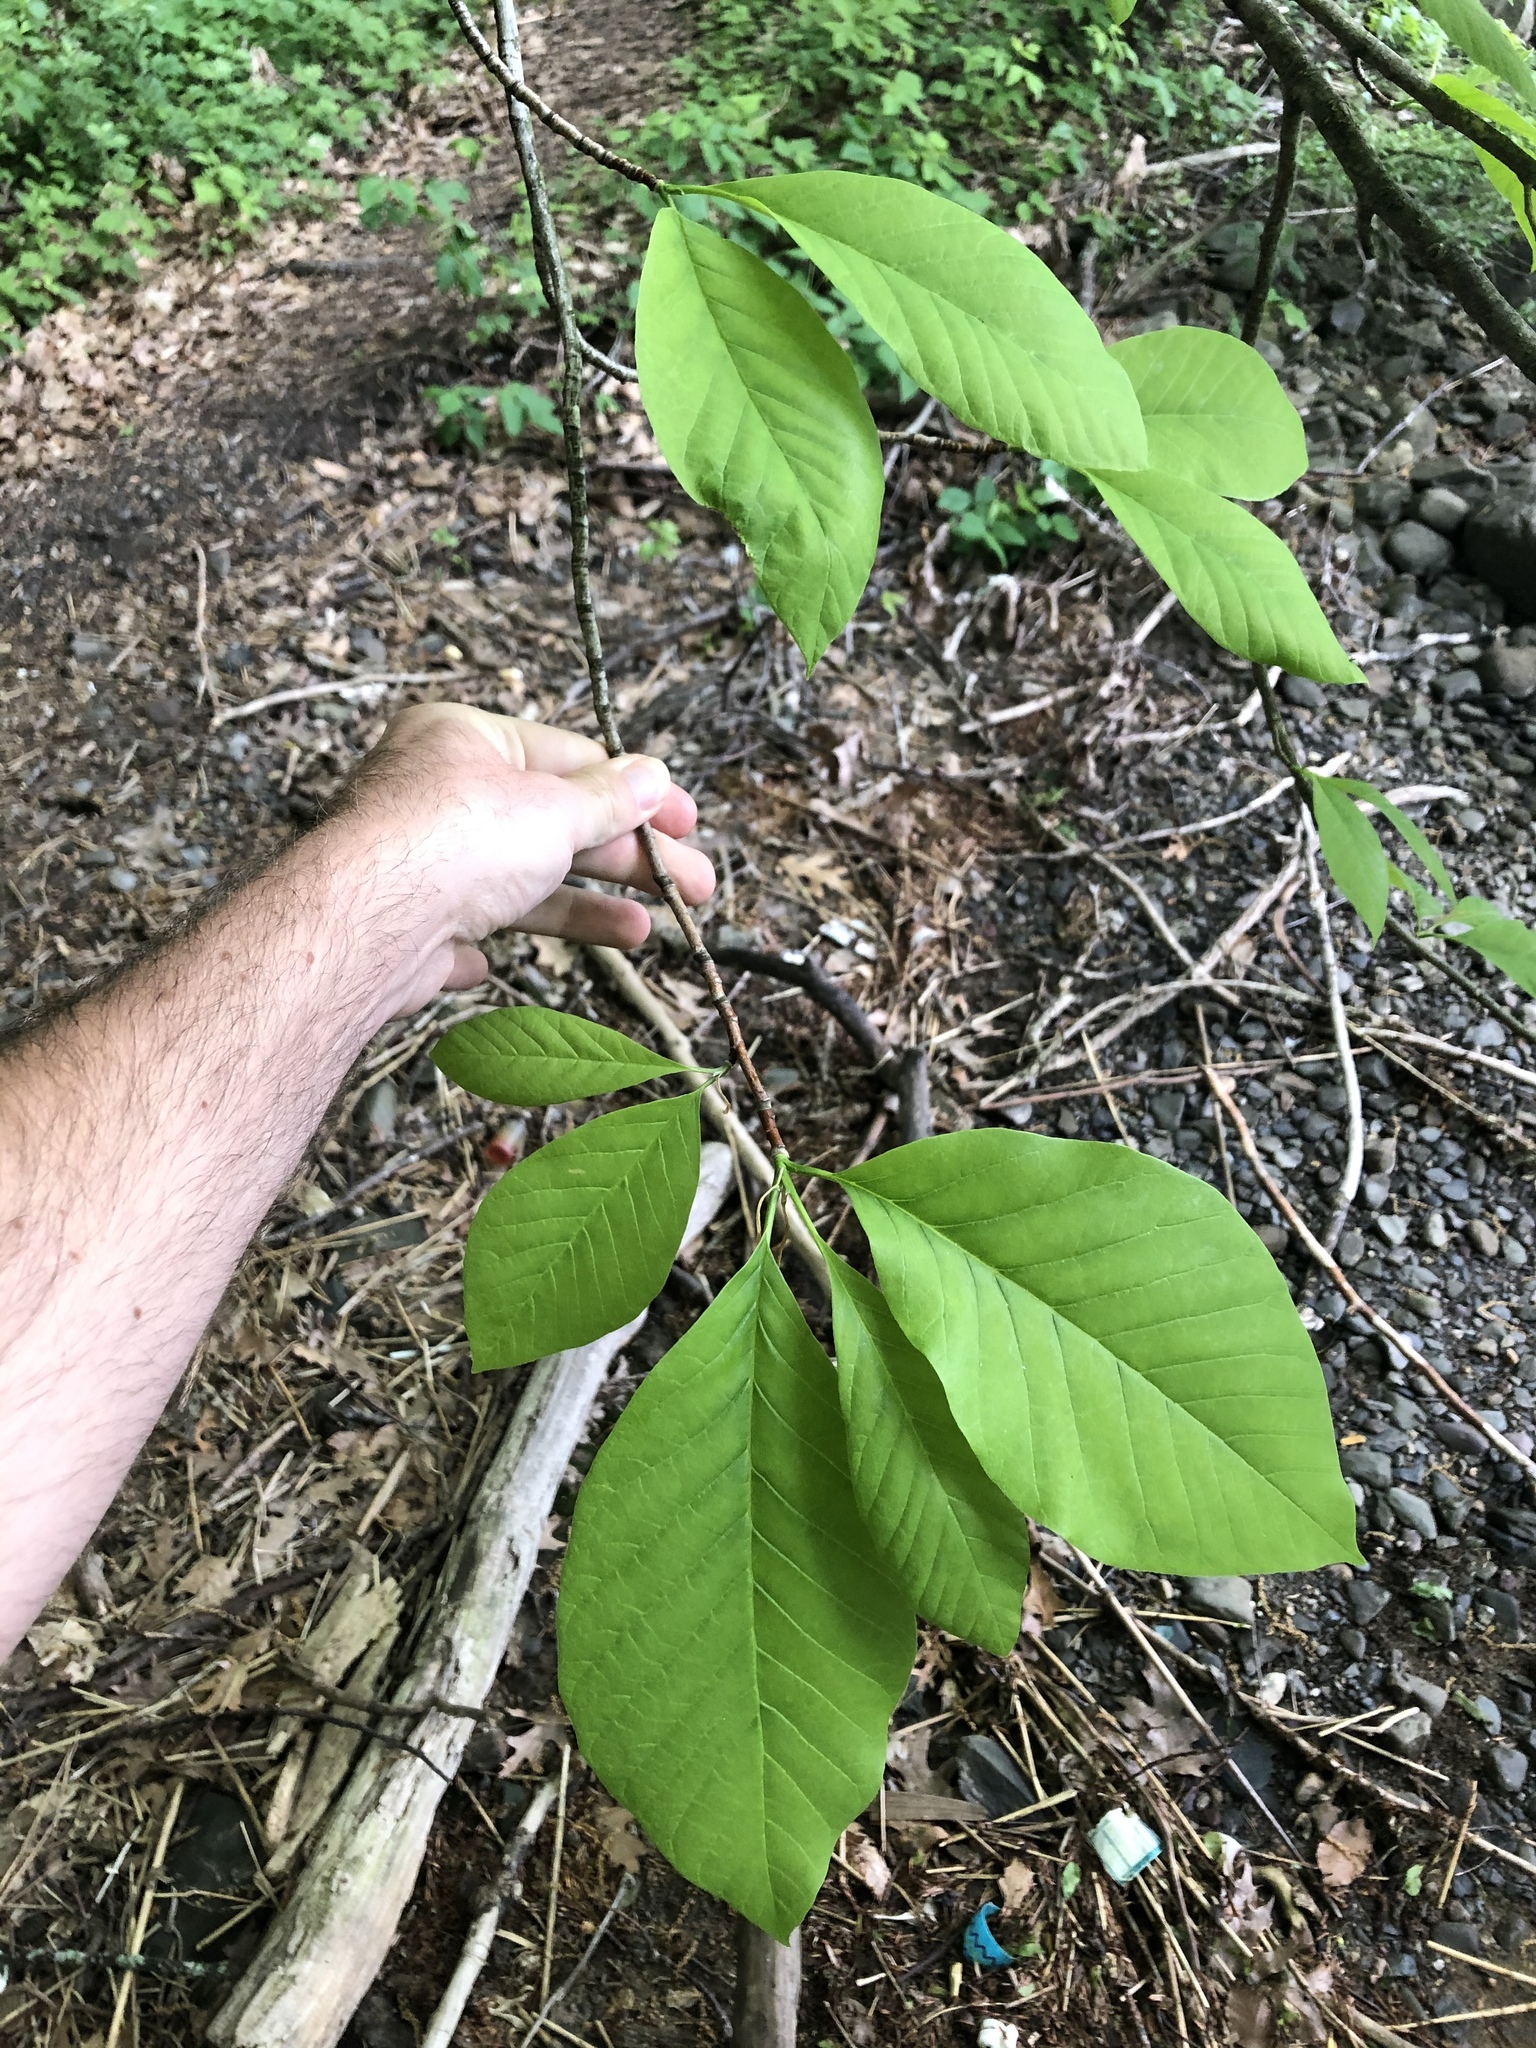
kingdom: Plantae
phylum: Tracheophyta
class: Magnoliopsida
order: Magnoliales
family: Magnoliaceae
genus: Magnolia
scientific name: Magnolia acuminata
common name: Cucumber magnolia
